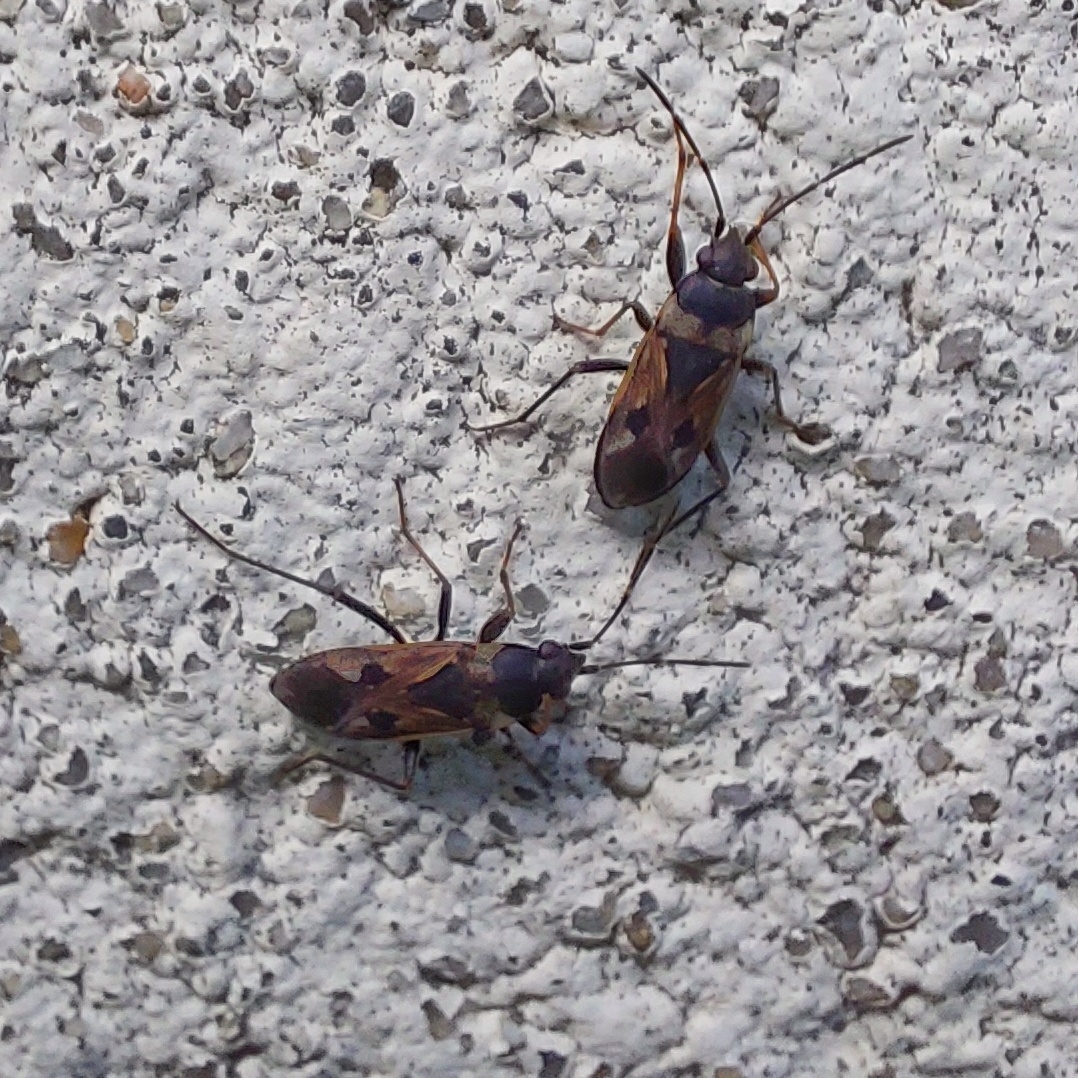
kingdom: Animalia
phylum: Arthropoda
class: Insecta
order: Hemiptera
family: Rhyparochromidae
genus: Rhyparochromus
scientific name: Rhyparochromus vulgaris
